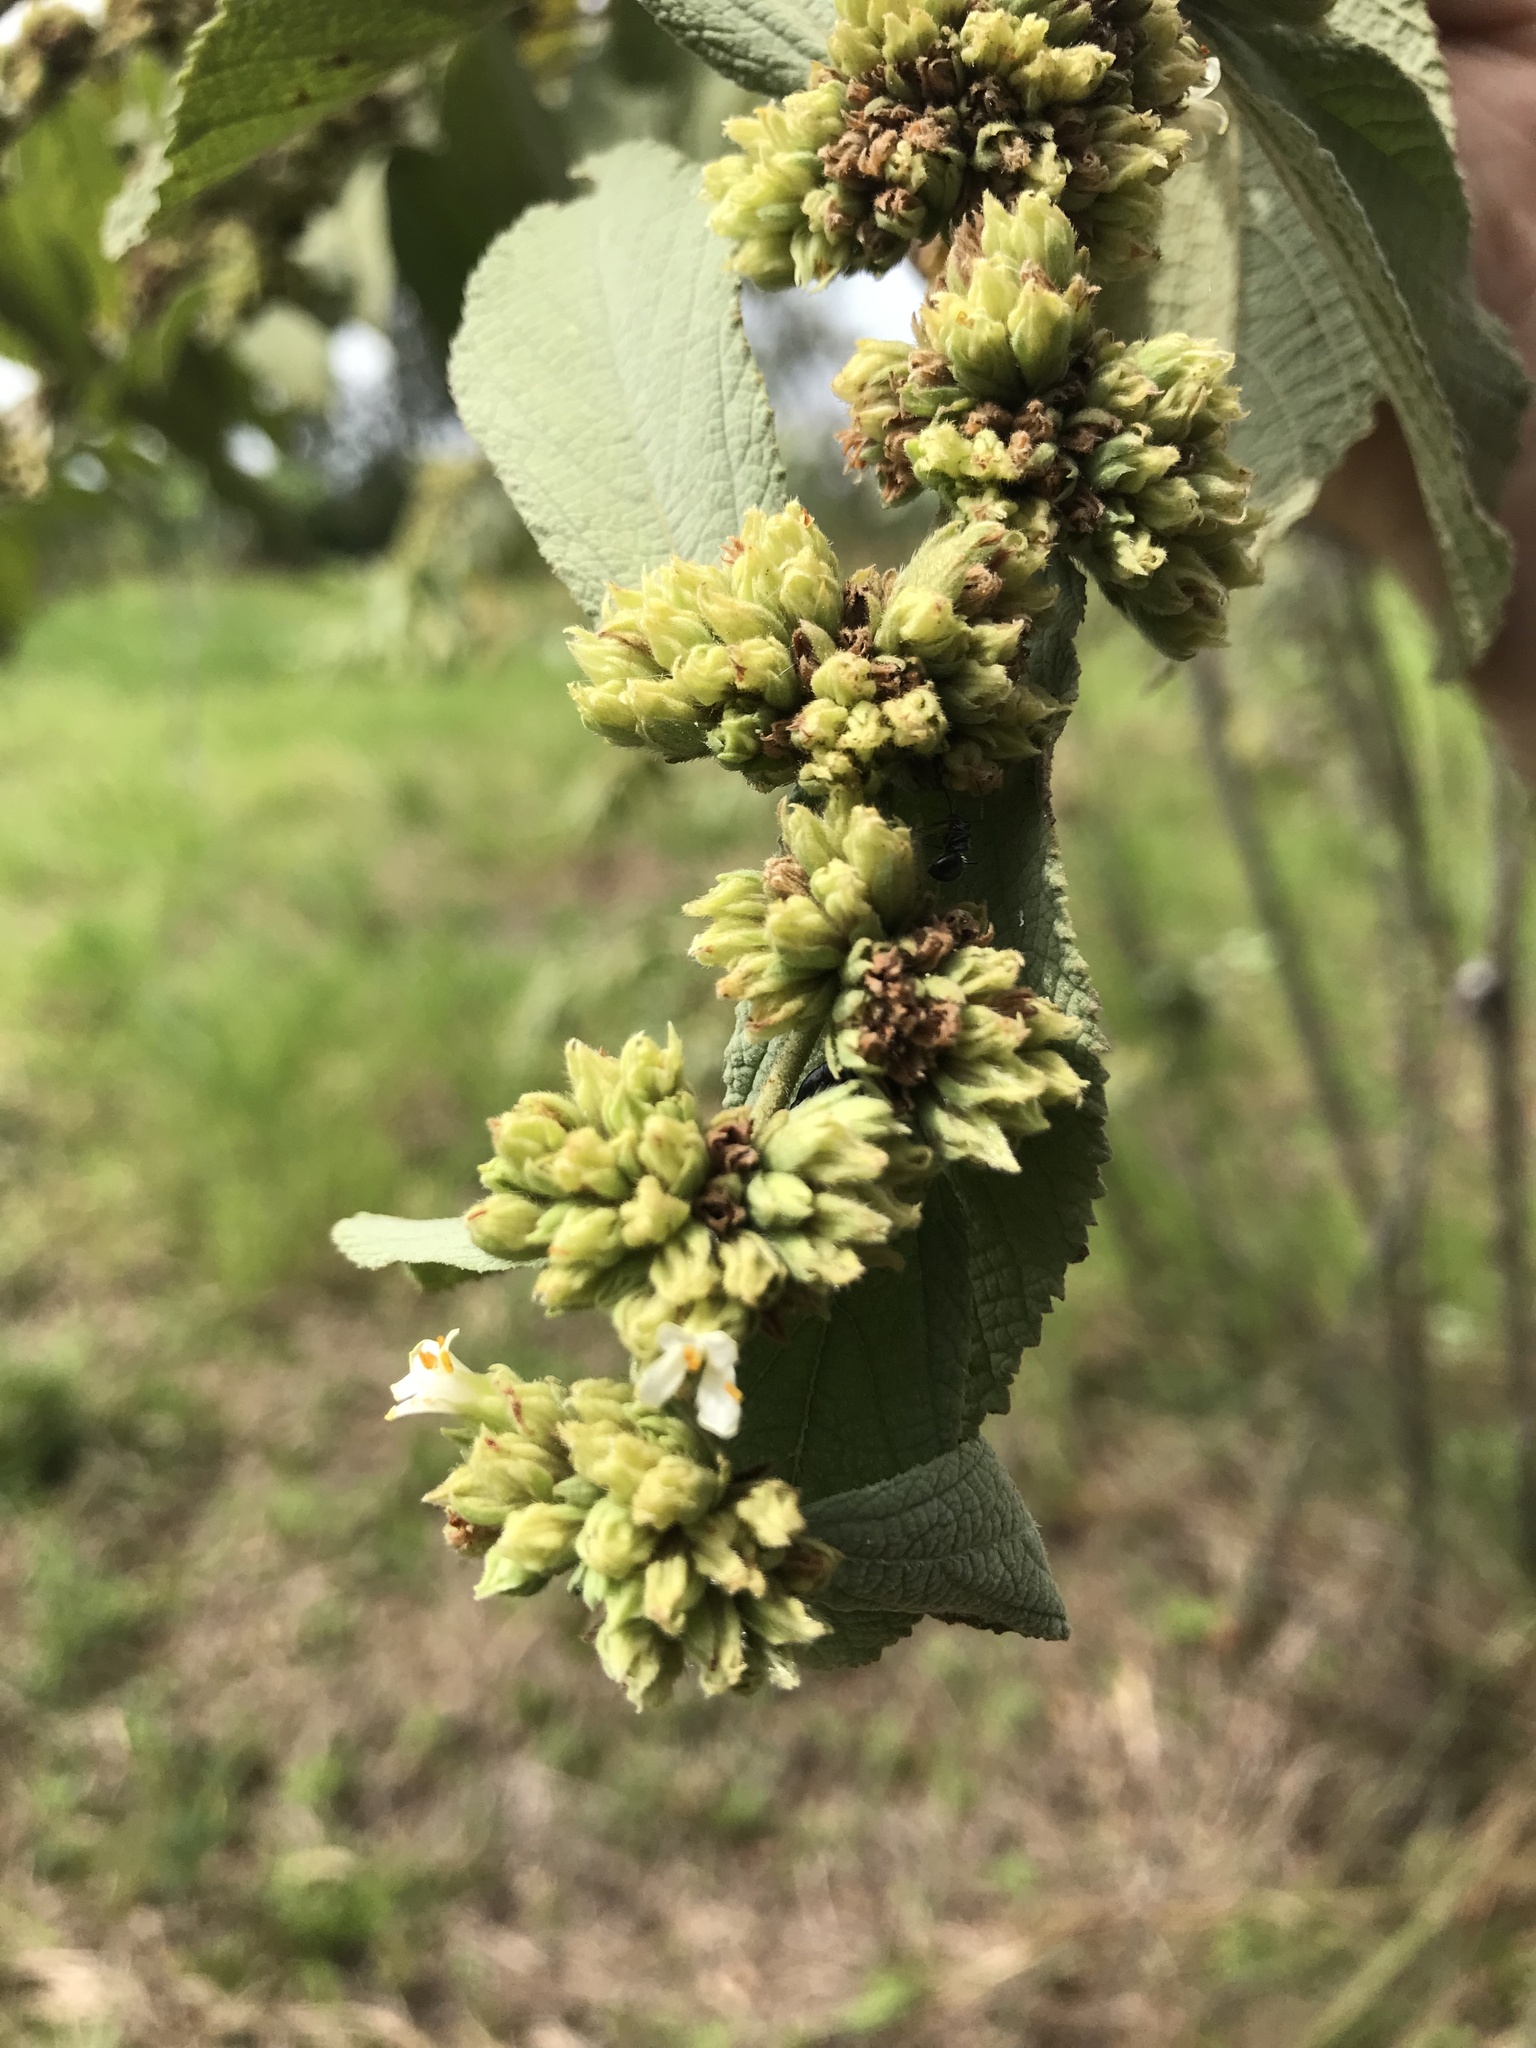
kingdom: Plantae
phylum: Tracheophyta
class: Magnoliopsida
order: Malvales
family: Malvaceae
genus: Waltheria
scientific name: Waltheria glomerata
